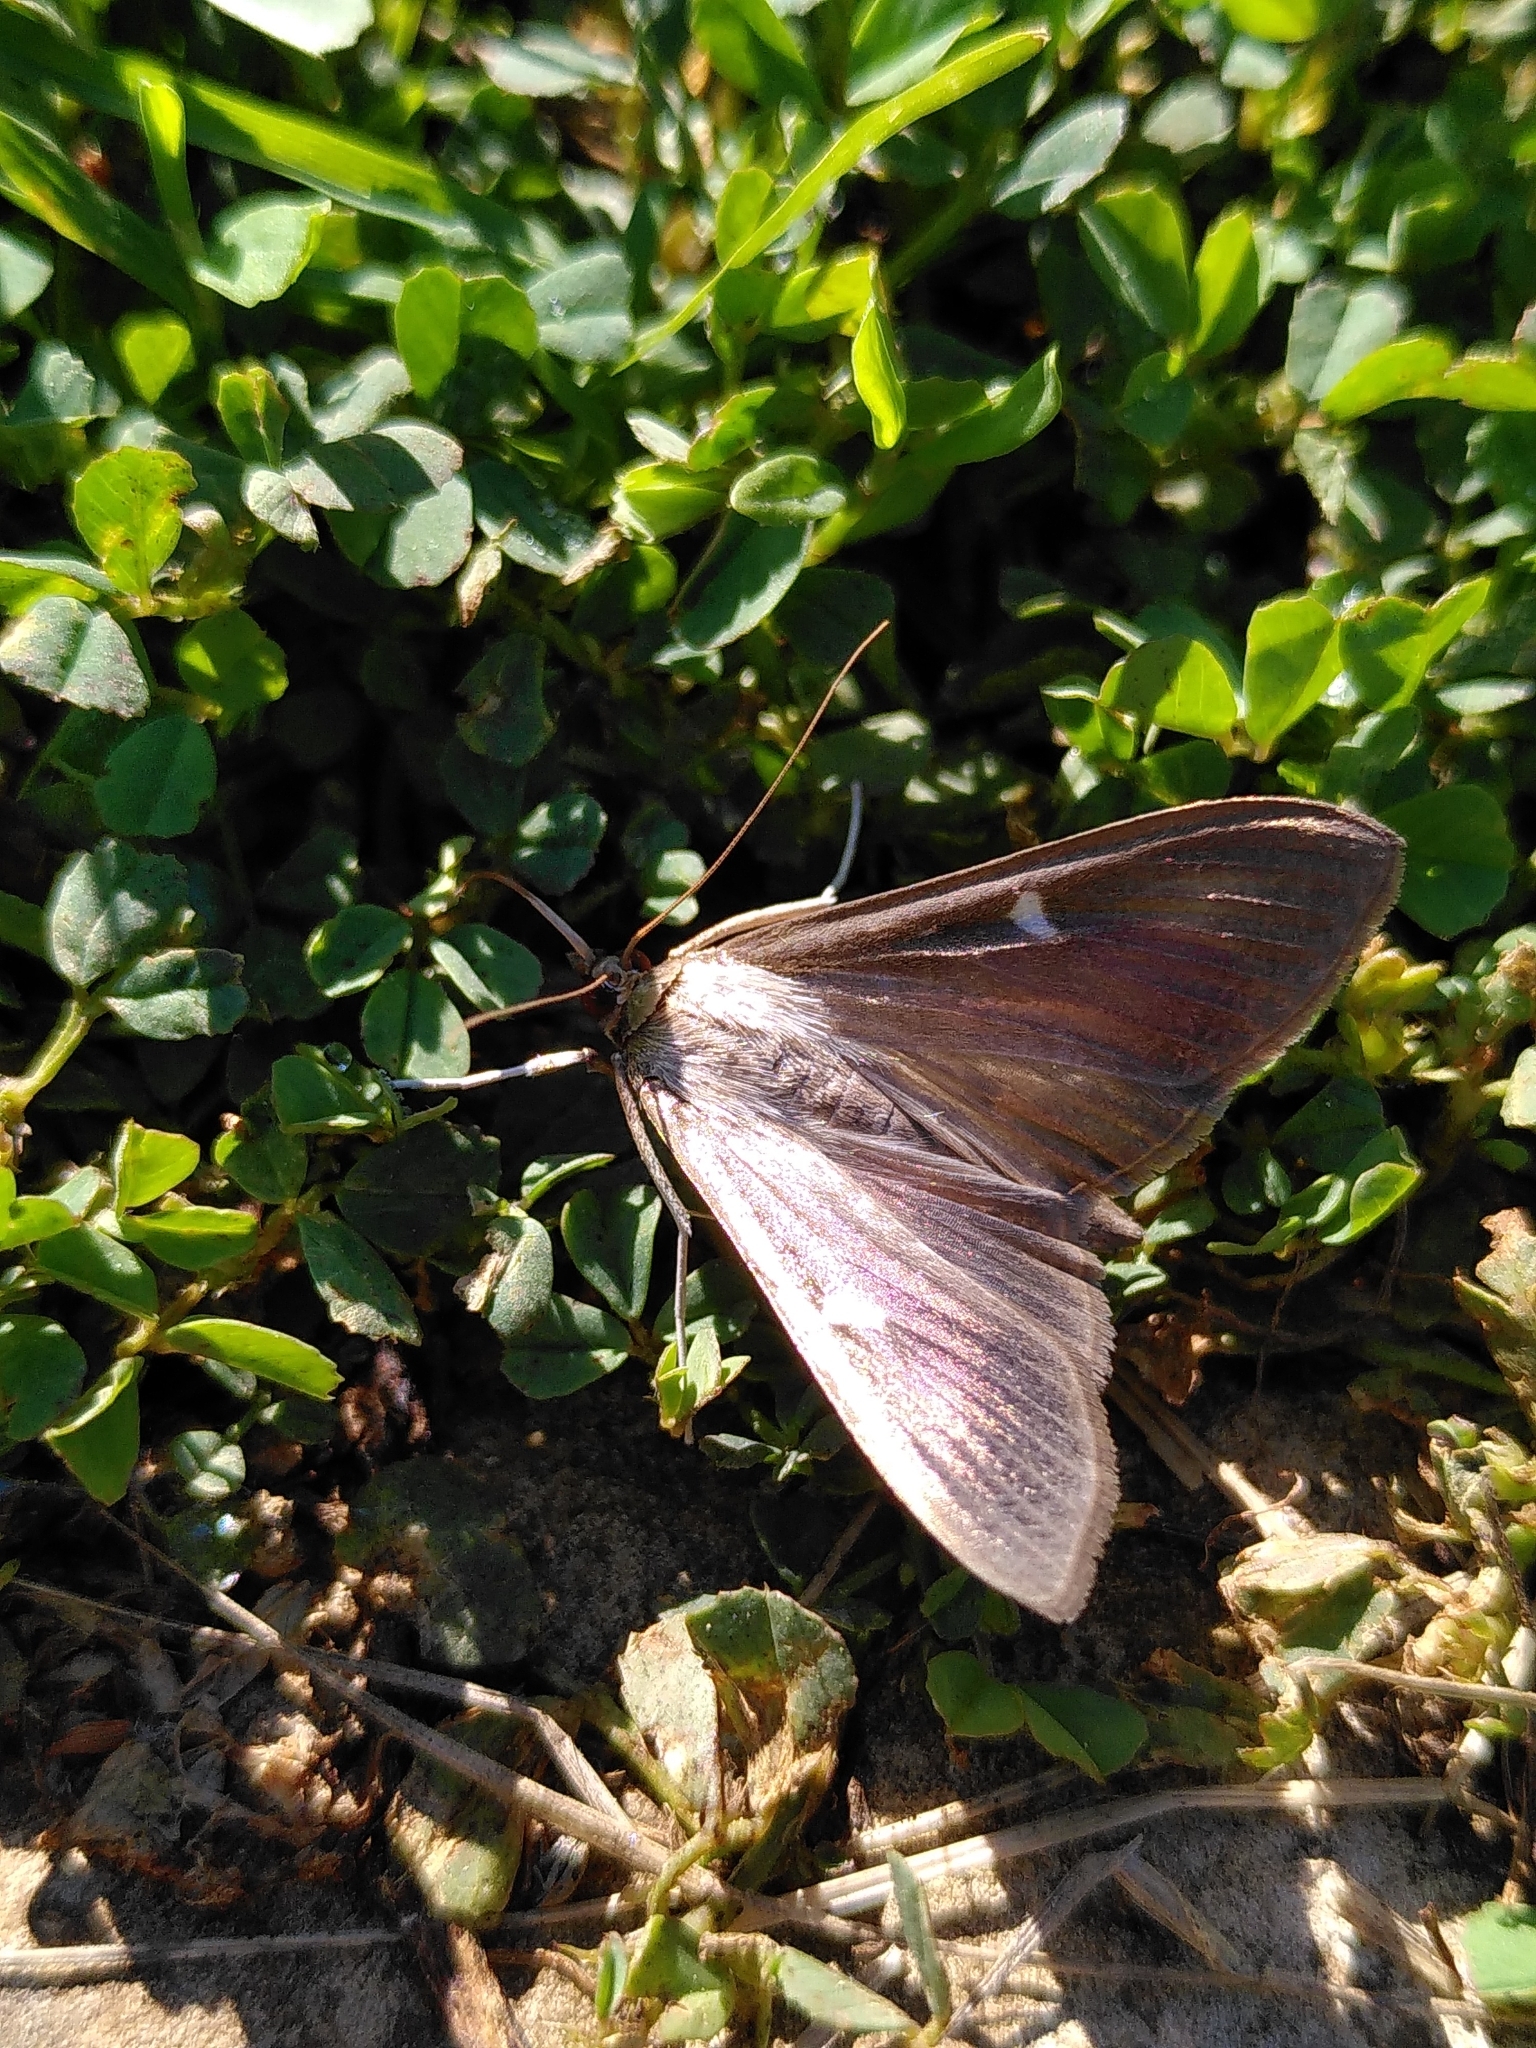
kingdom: Animalia
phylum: Arthropoda
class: Insecta
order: Lepidoptera
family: Crambidae
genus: Cydalima
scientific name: Cydalima perspectalis
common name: Box tree moth
